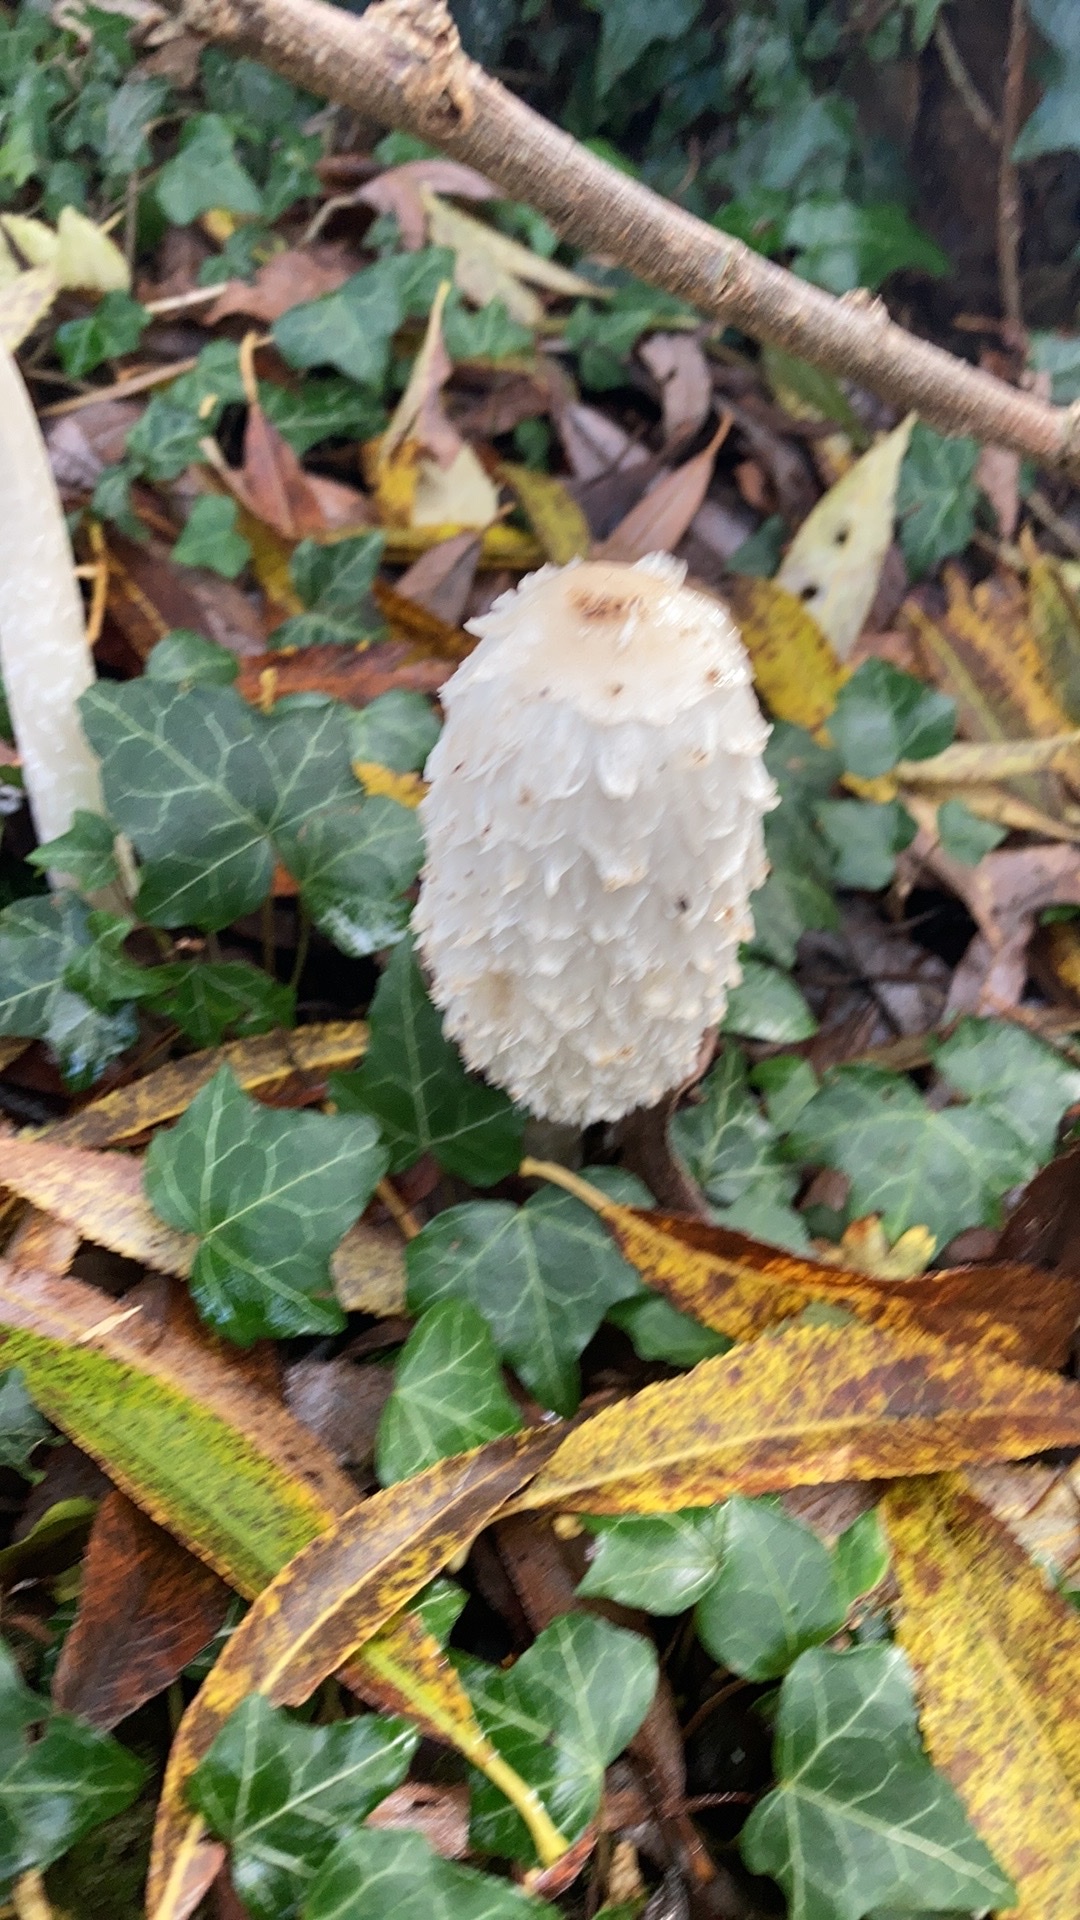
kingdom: Fungi
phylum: Basidiomycota
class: Agaricomycetes
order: Agaricales
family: Agaricaceae
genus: Coprinus
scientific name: Coprinus comatus
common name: Lawyer's wig
